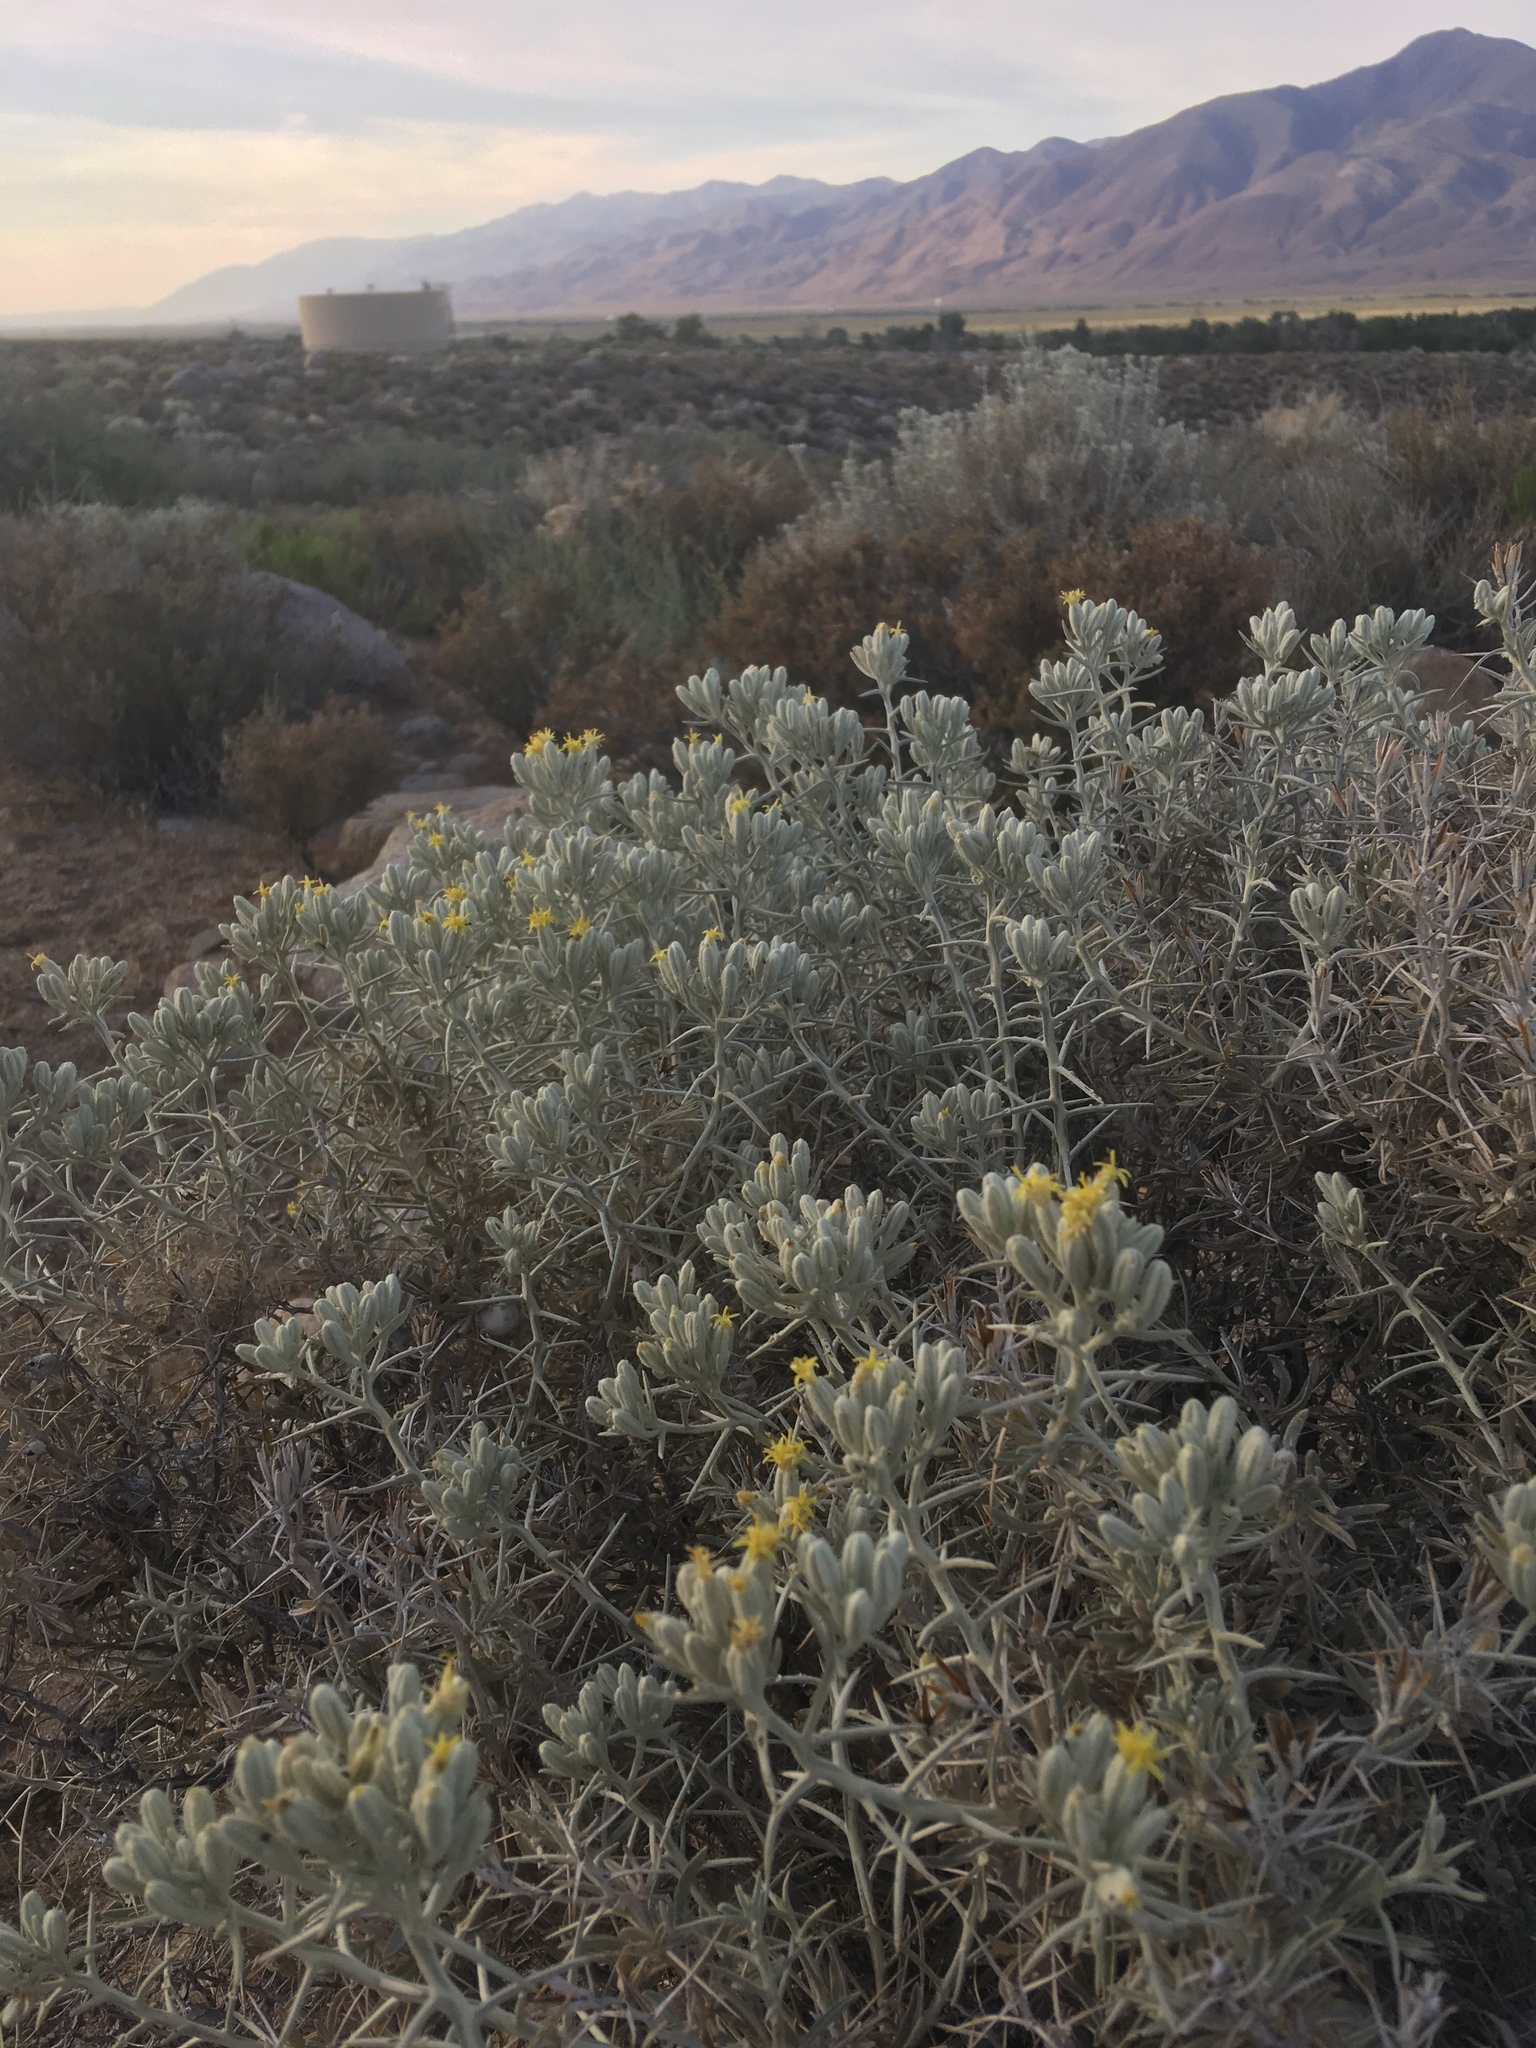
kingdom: Plantae
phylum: Tracheophyta
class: Magnoliopsida
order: Asterales
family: Asteraceae
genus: Tetradymia
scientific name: Tetradymia stenolepis
